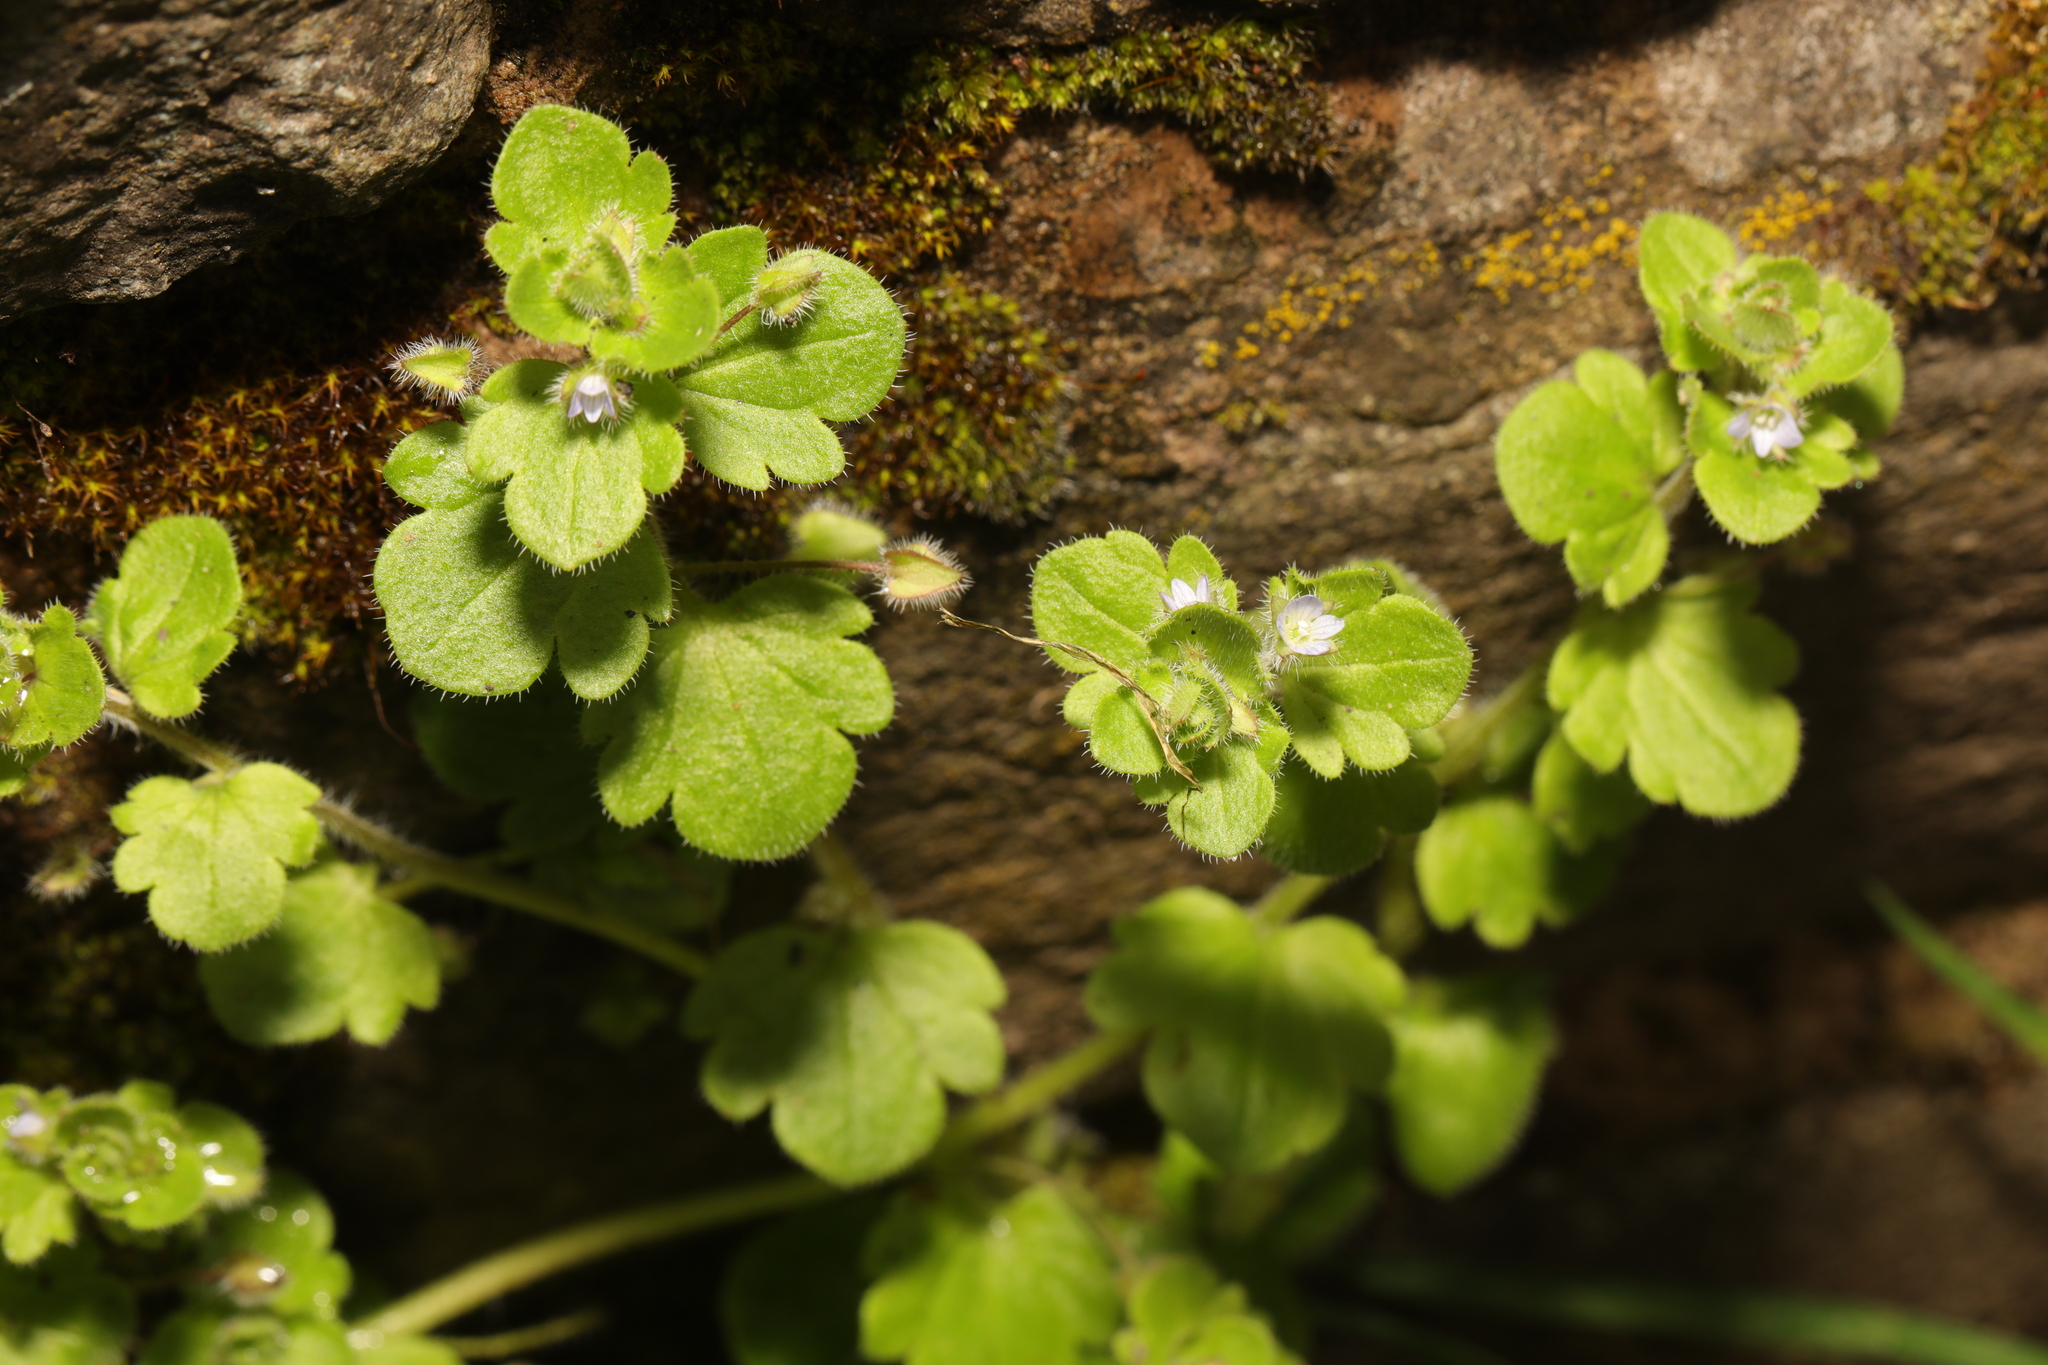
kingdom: Plantae
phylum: Tracheophyta
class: Magnoliopsida
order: Lamiales
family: Plantaginaceae
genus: Veronica
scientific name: Veronica sublobata
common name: False ivy-leaved speedwell
